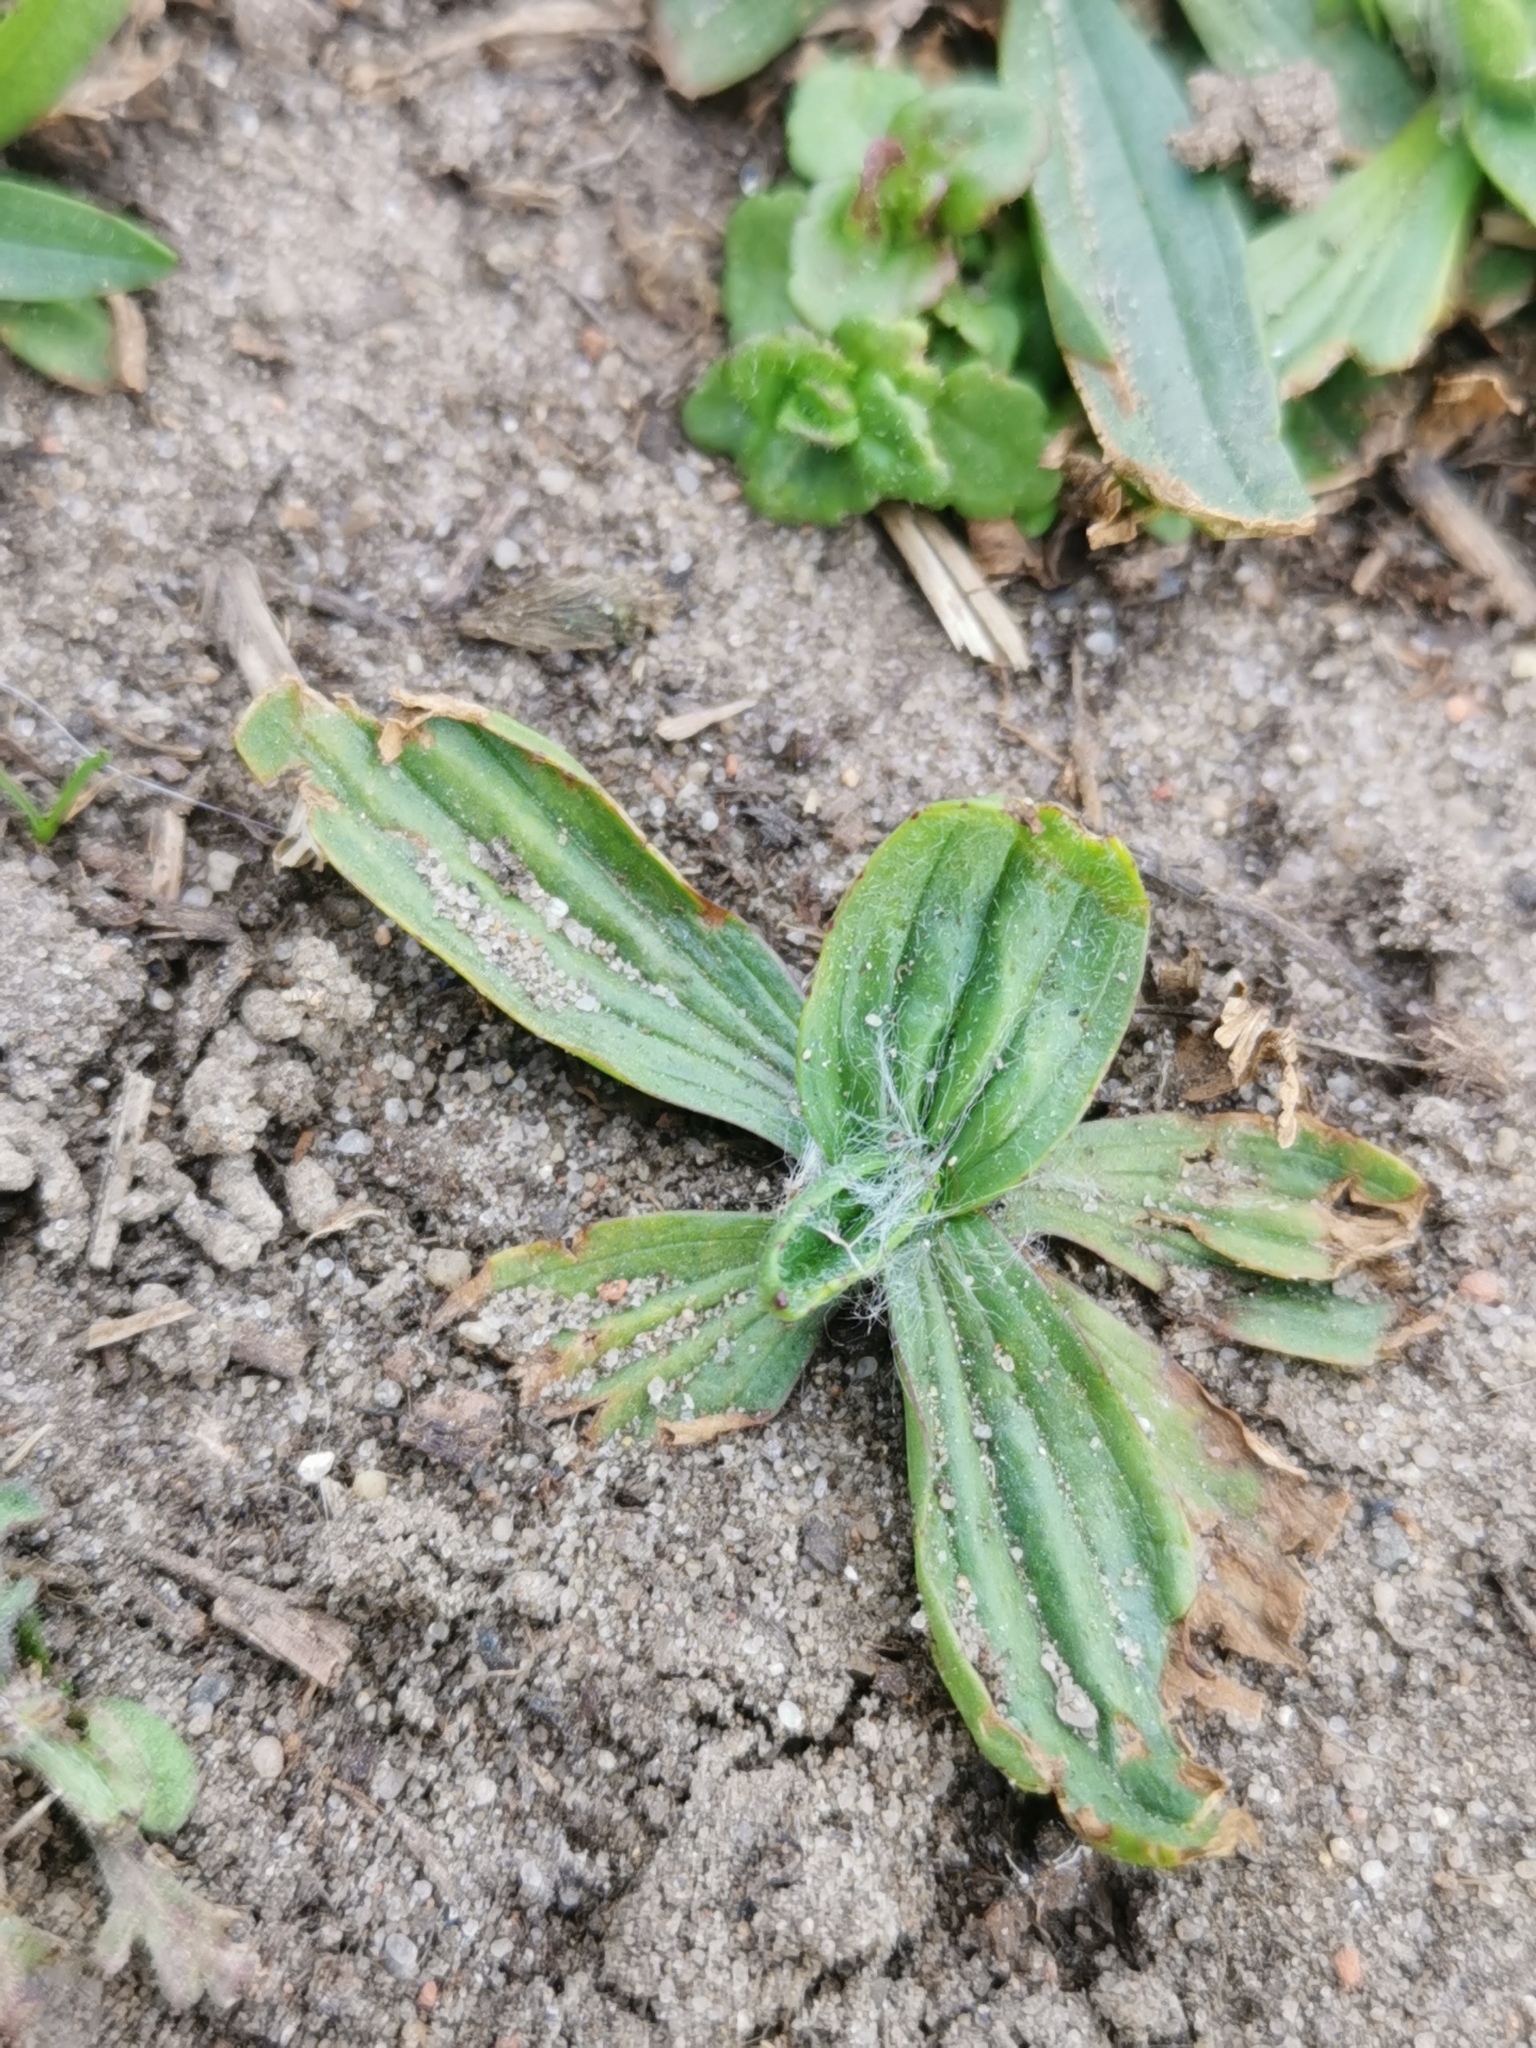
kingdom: Plantae
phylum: Tracheophyta
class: Magnoliopsida
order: Lamiales
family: Plantaginaceae
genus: Plantago
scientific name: Plantago lanceolata
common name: Ribwort plantain
